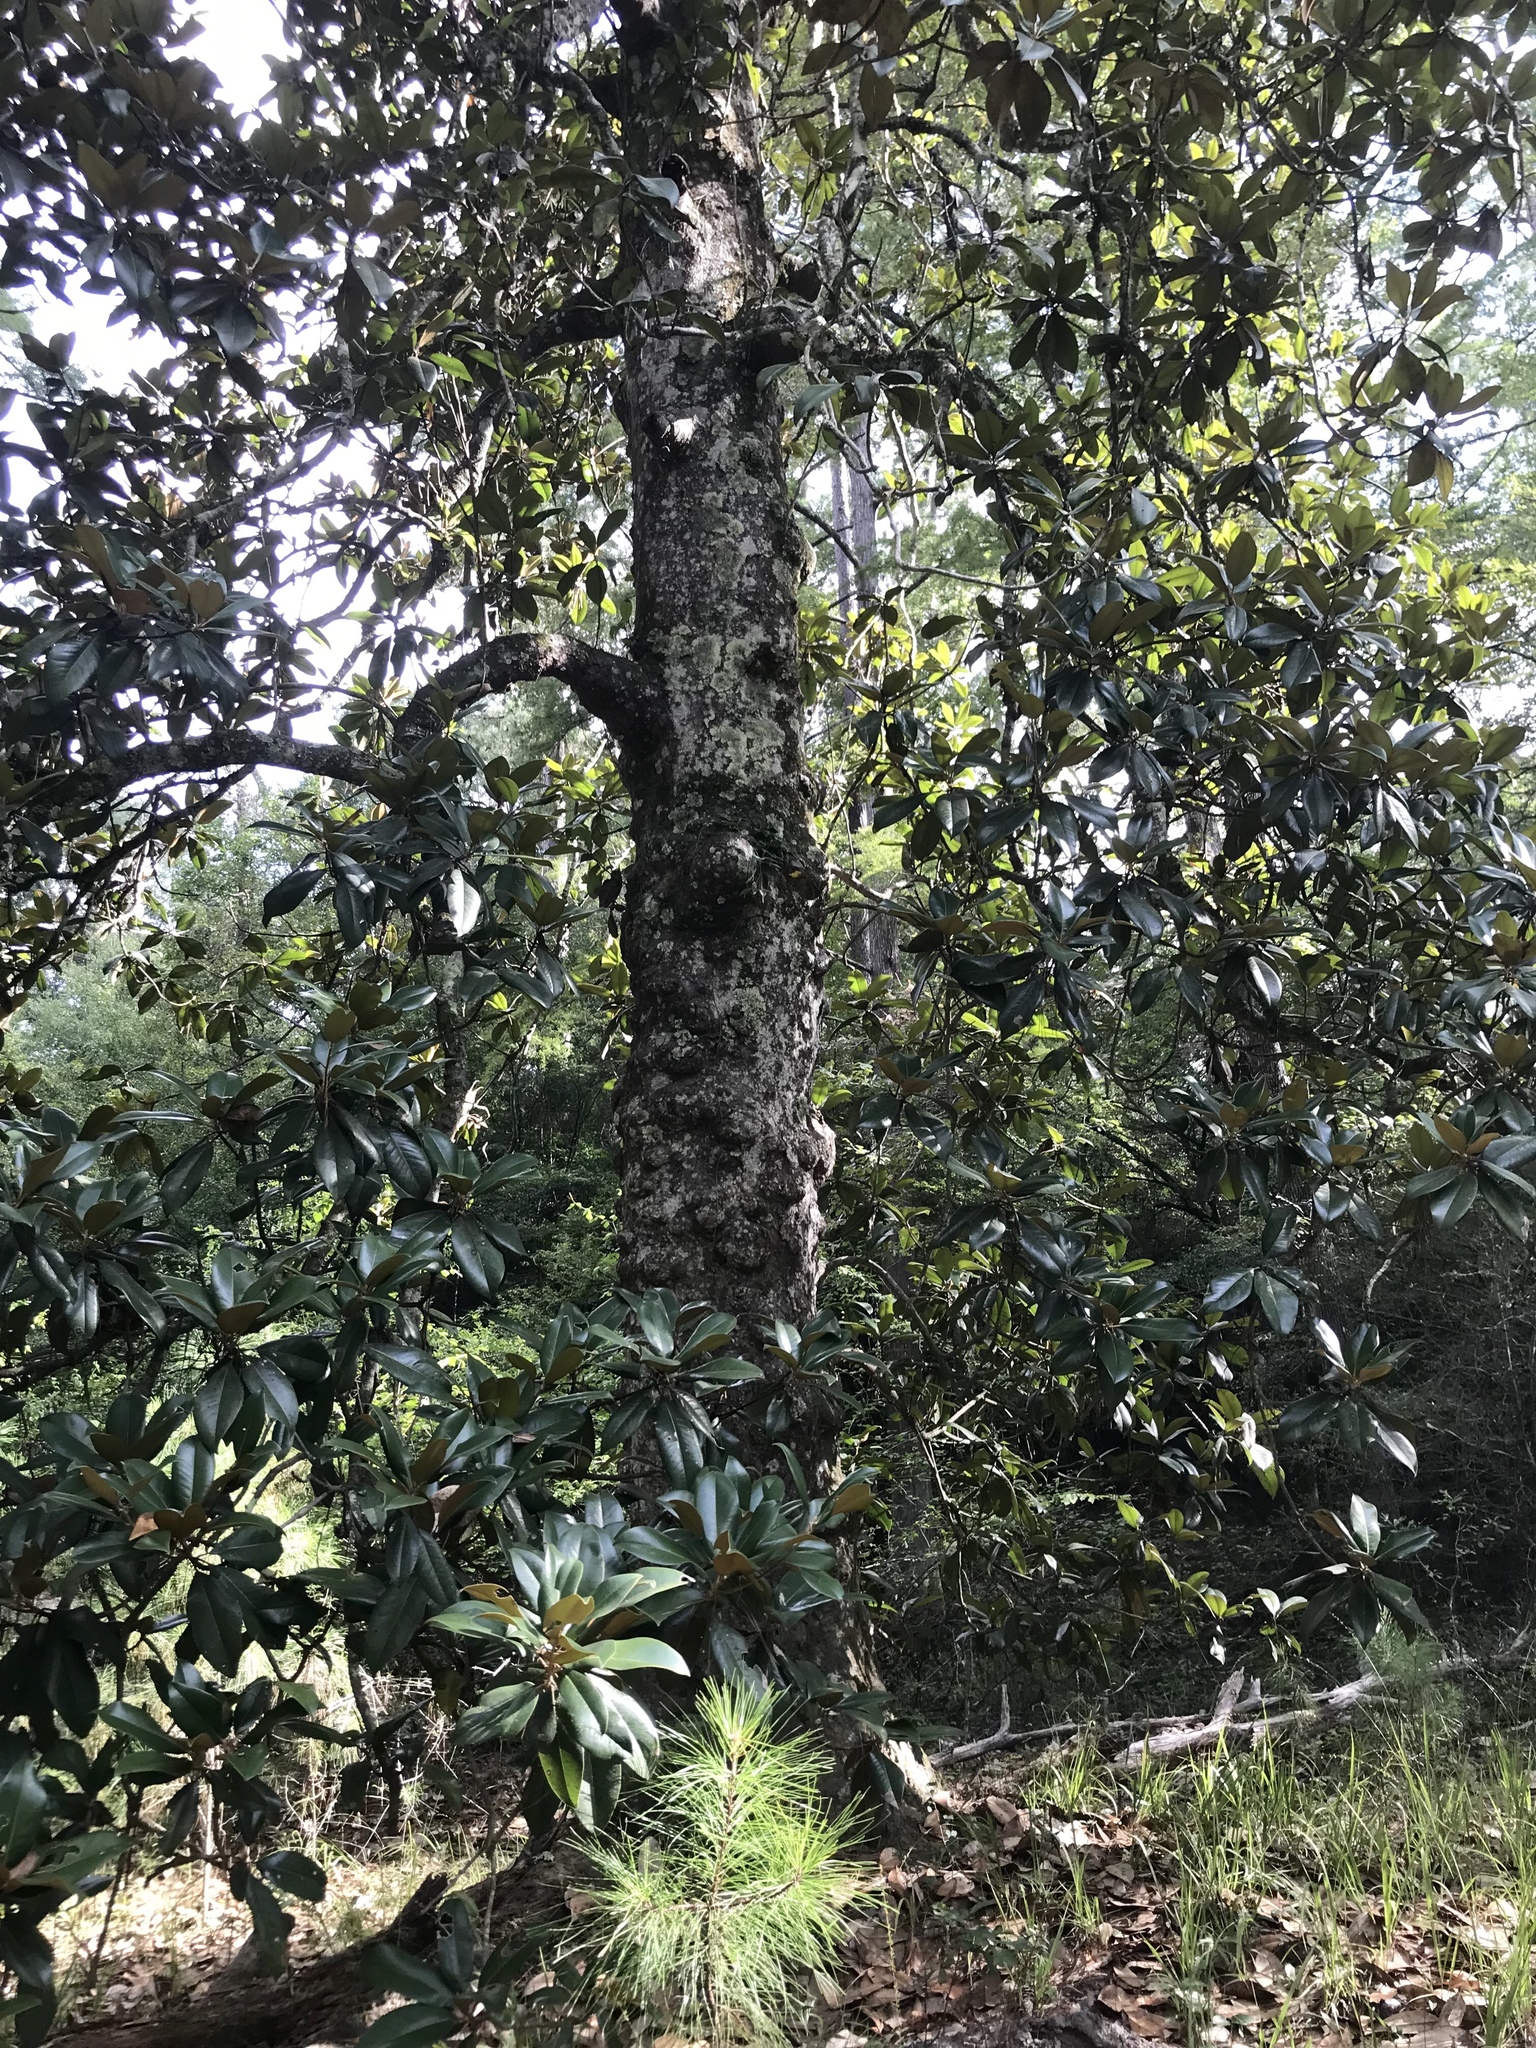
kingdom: Plantae
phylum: Tracheophyta
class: Magnoliopsida
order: Magnoliales
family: Magnoliaceae
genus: Magnolia
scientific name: Magnolia grandiflora
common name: Southern magnolia
